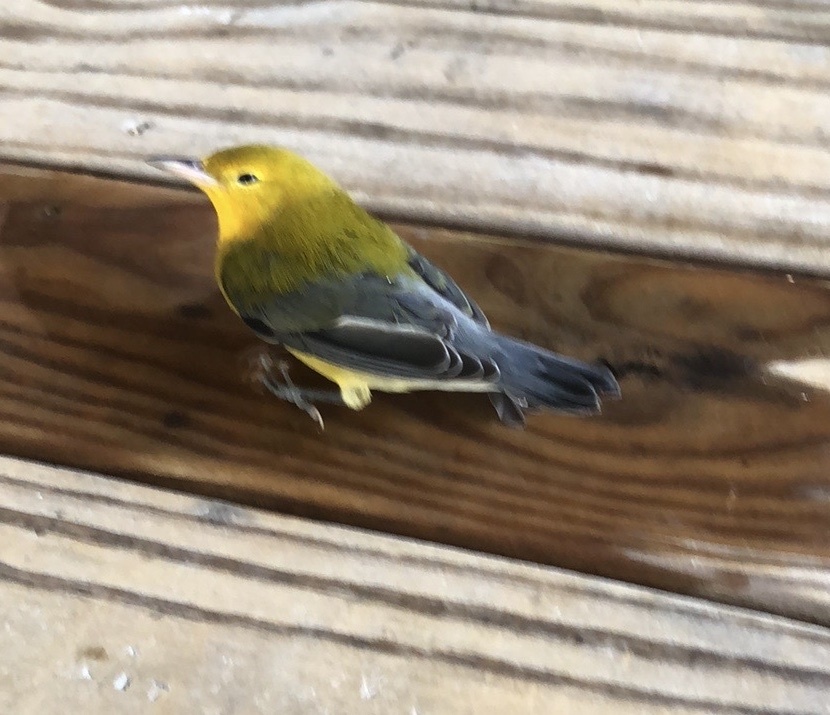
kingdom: Animalia
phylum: Chordata
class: Aves
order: Passeriformes
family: Parulidae
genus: Protonotaria
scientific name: Protonotaria citrea
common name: Prothonotary warbler
